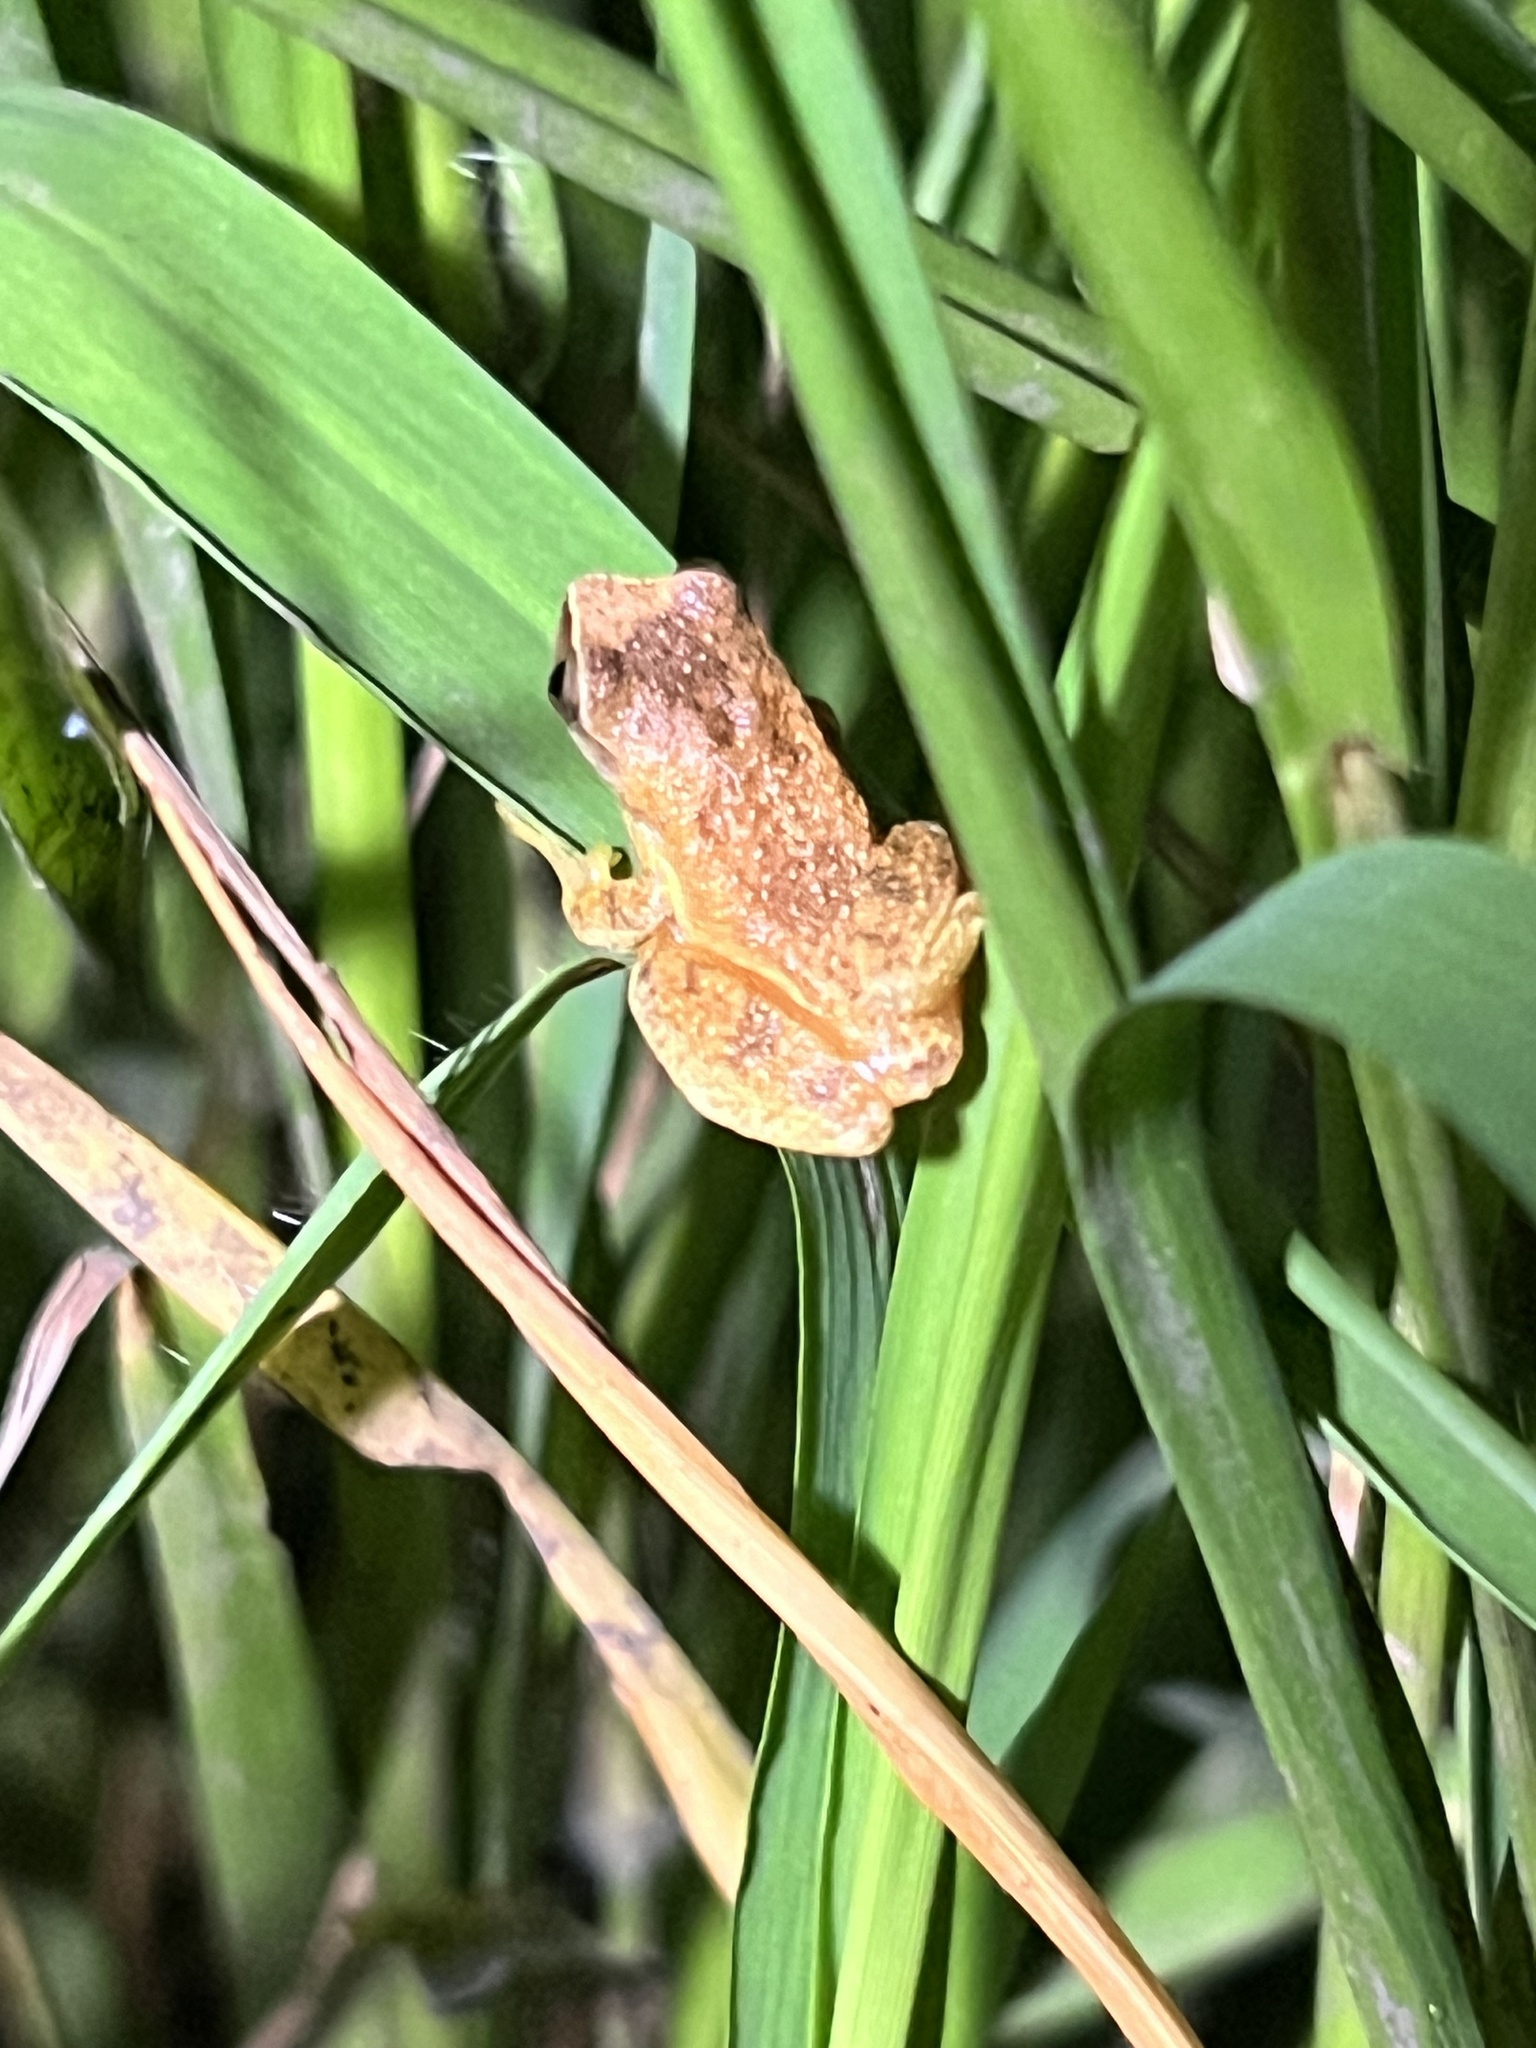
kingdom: Animalia
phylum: Chordata
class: Amphibia
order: Anura
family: Hylidae
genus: Dendropsophus
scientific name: Dendropsophus werneri
